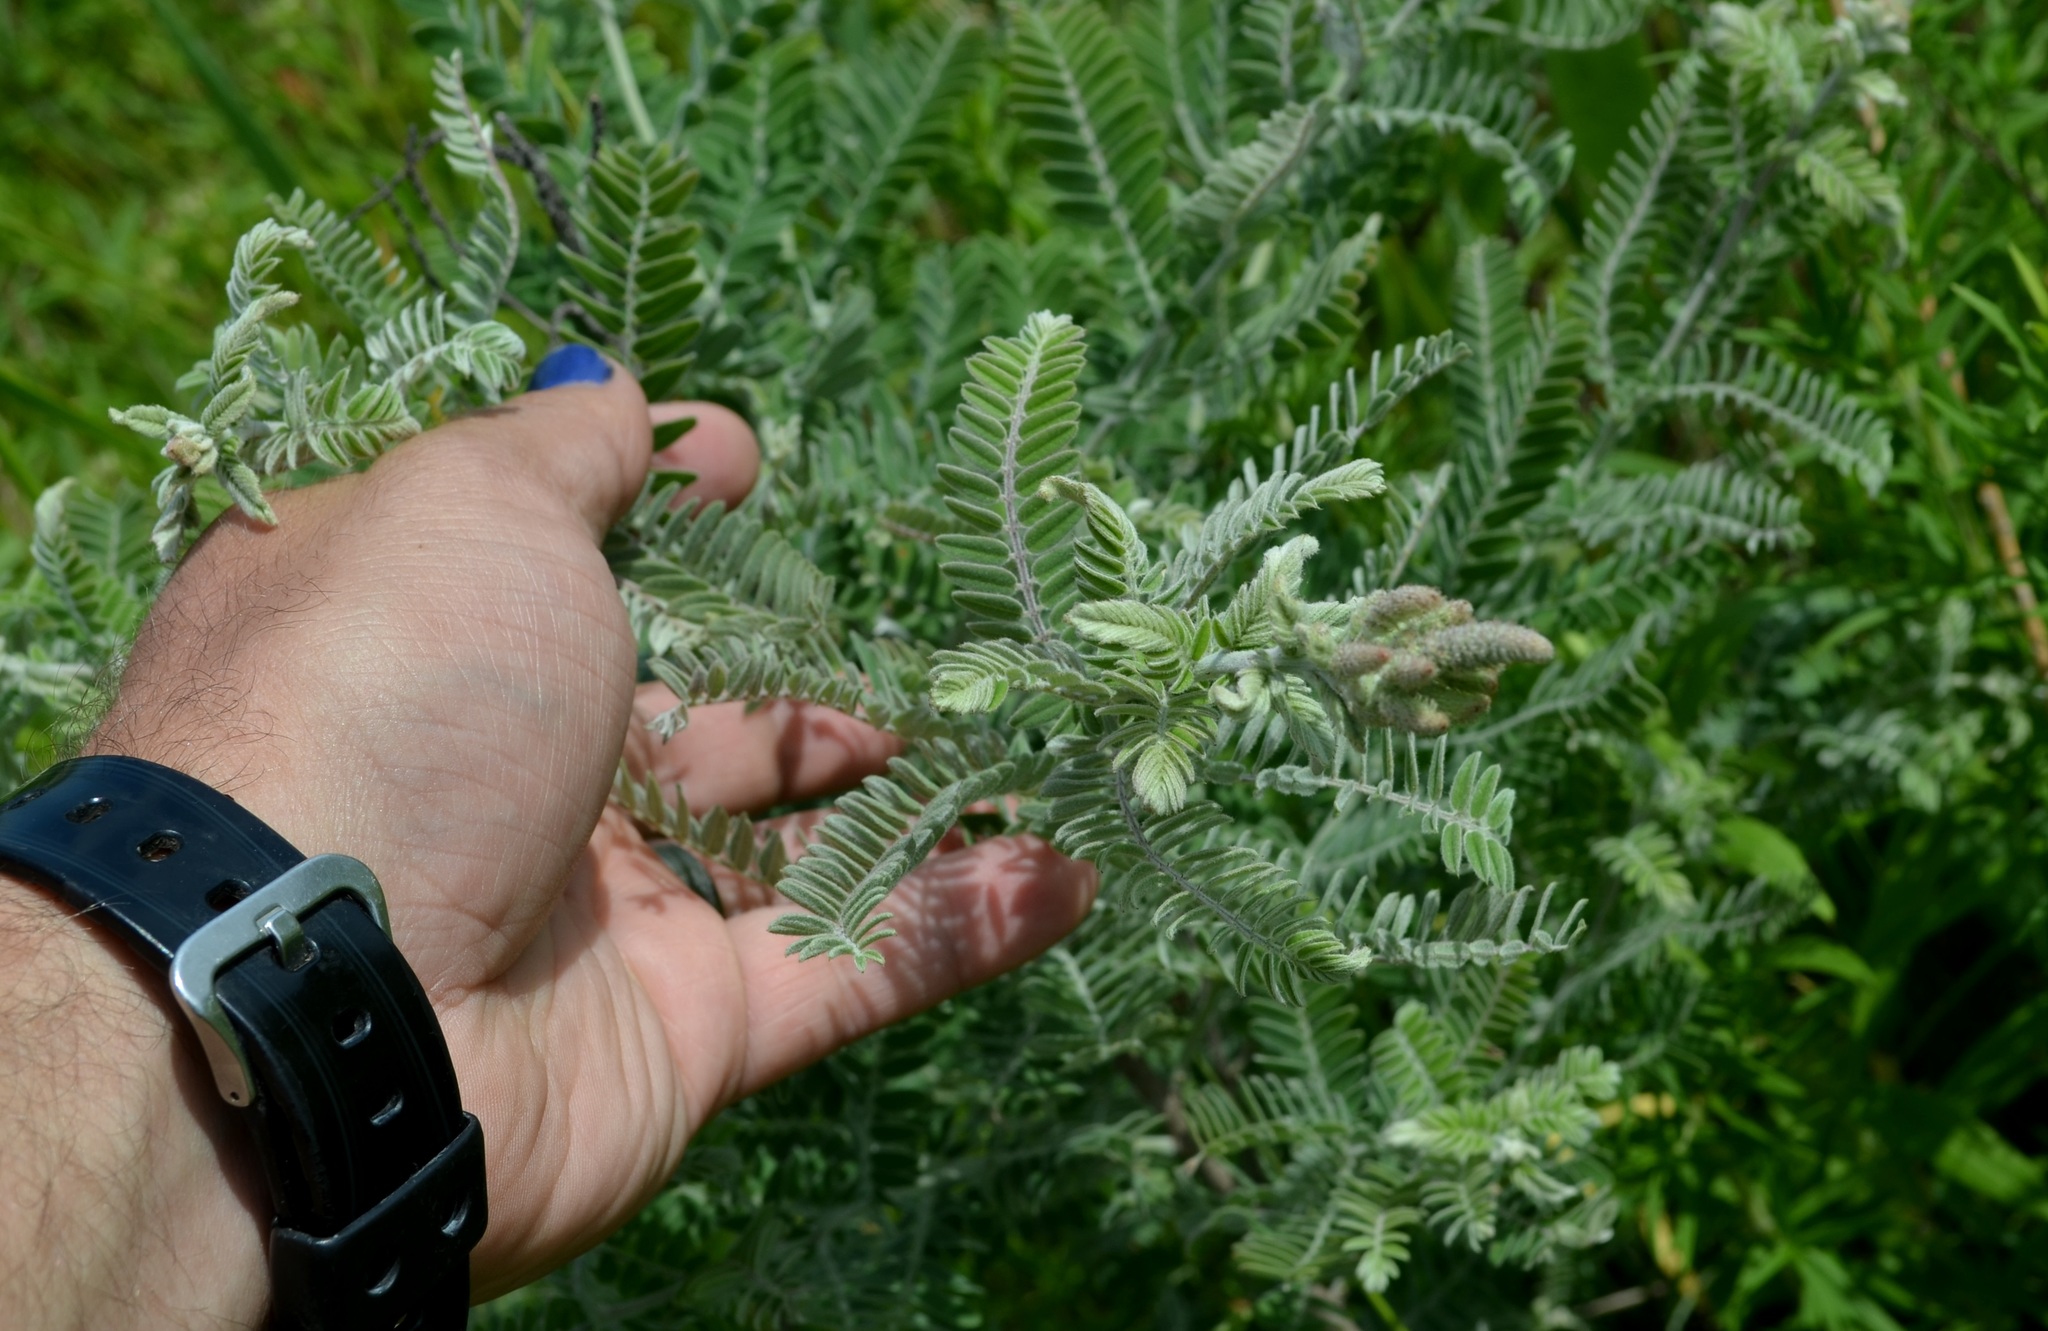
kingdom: Plantae
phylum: Tracheophyta
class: Magnoliopsida
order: Fabales
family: Fabaceae
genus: Amorpha
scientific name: Amorpha canescens
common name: Leadplant
